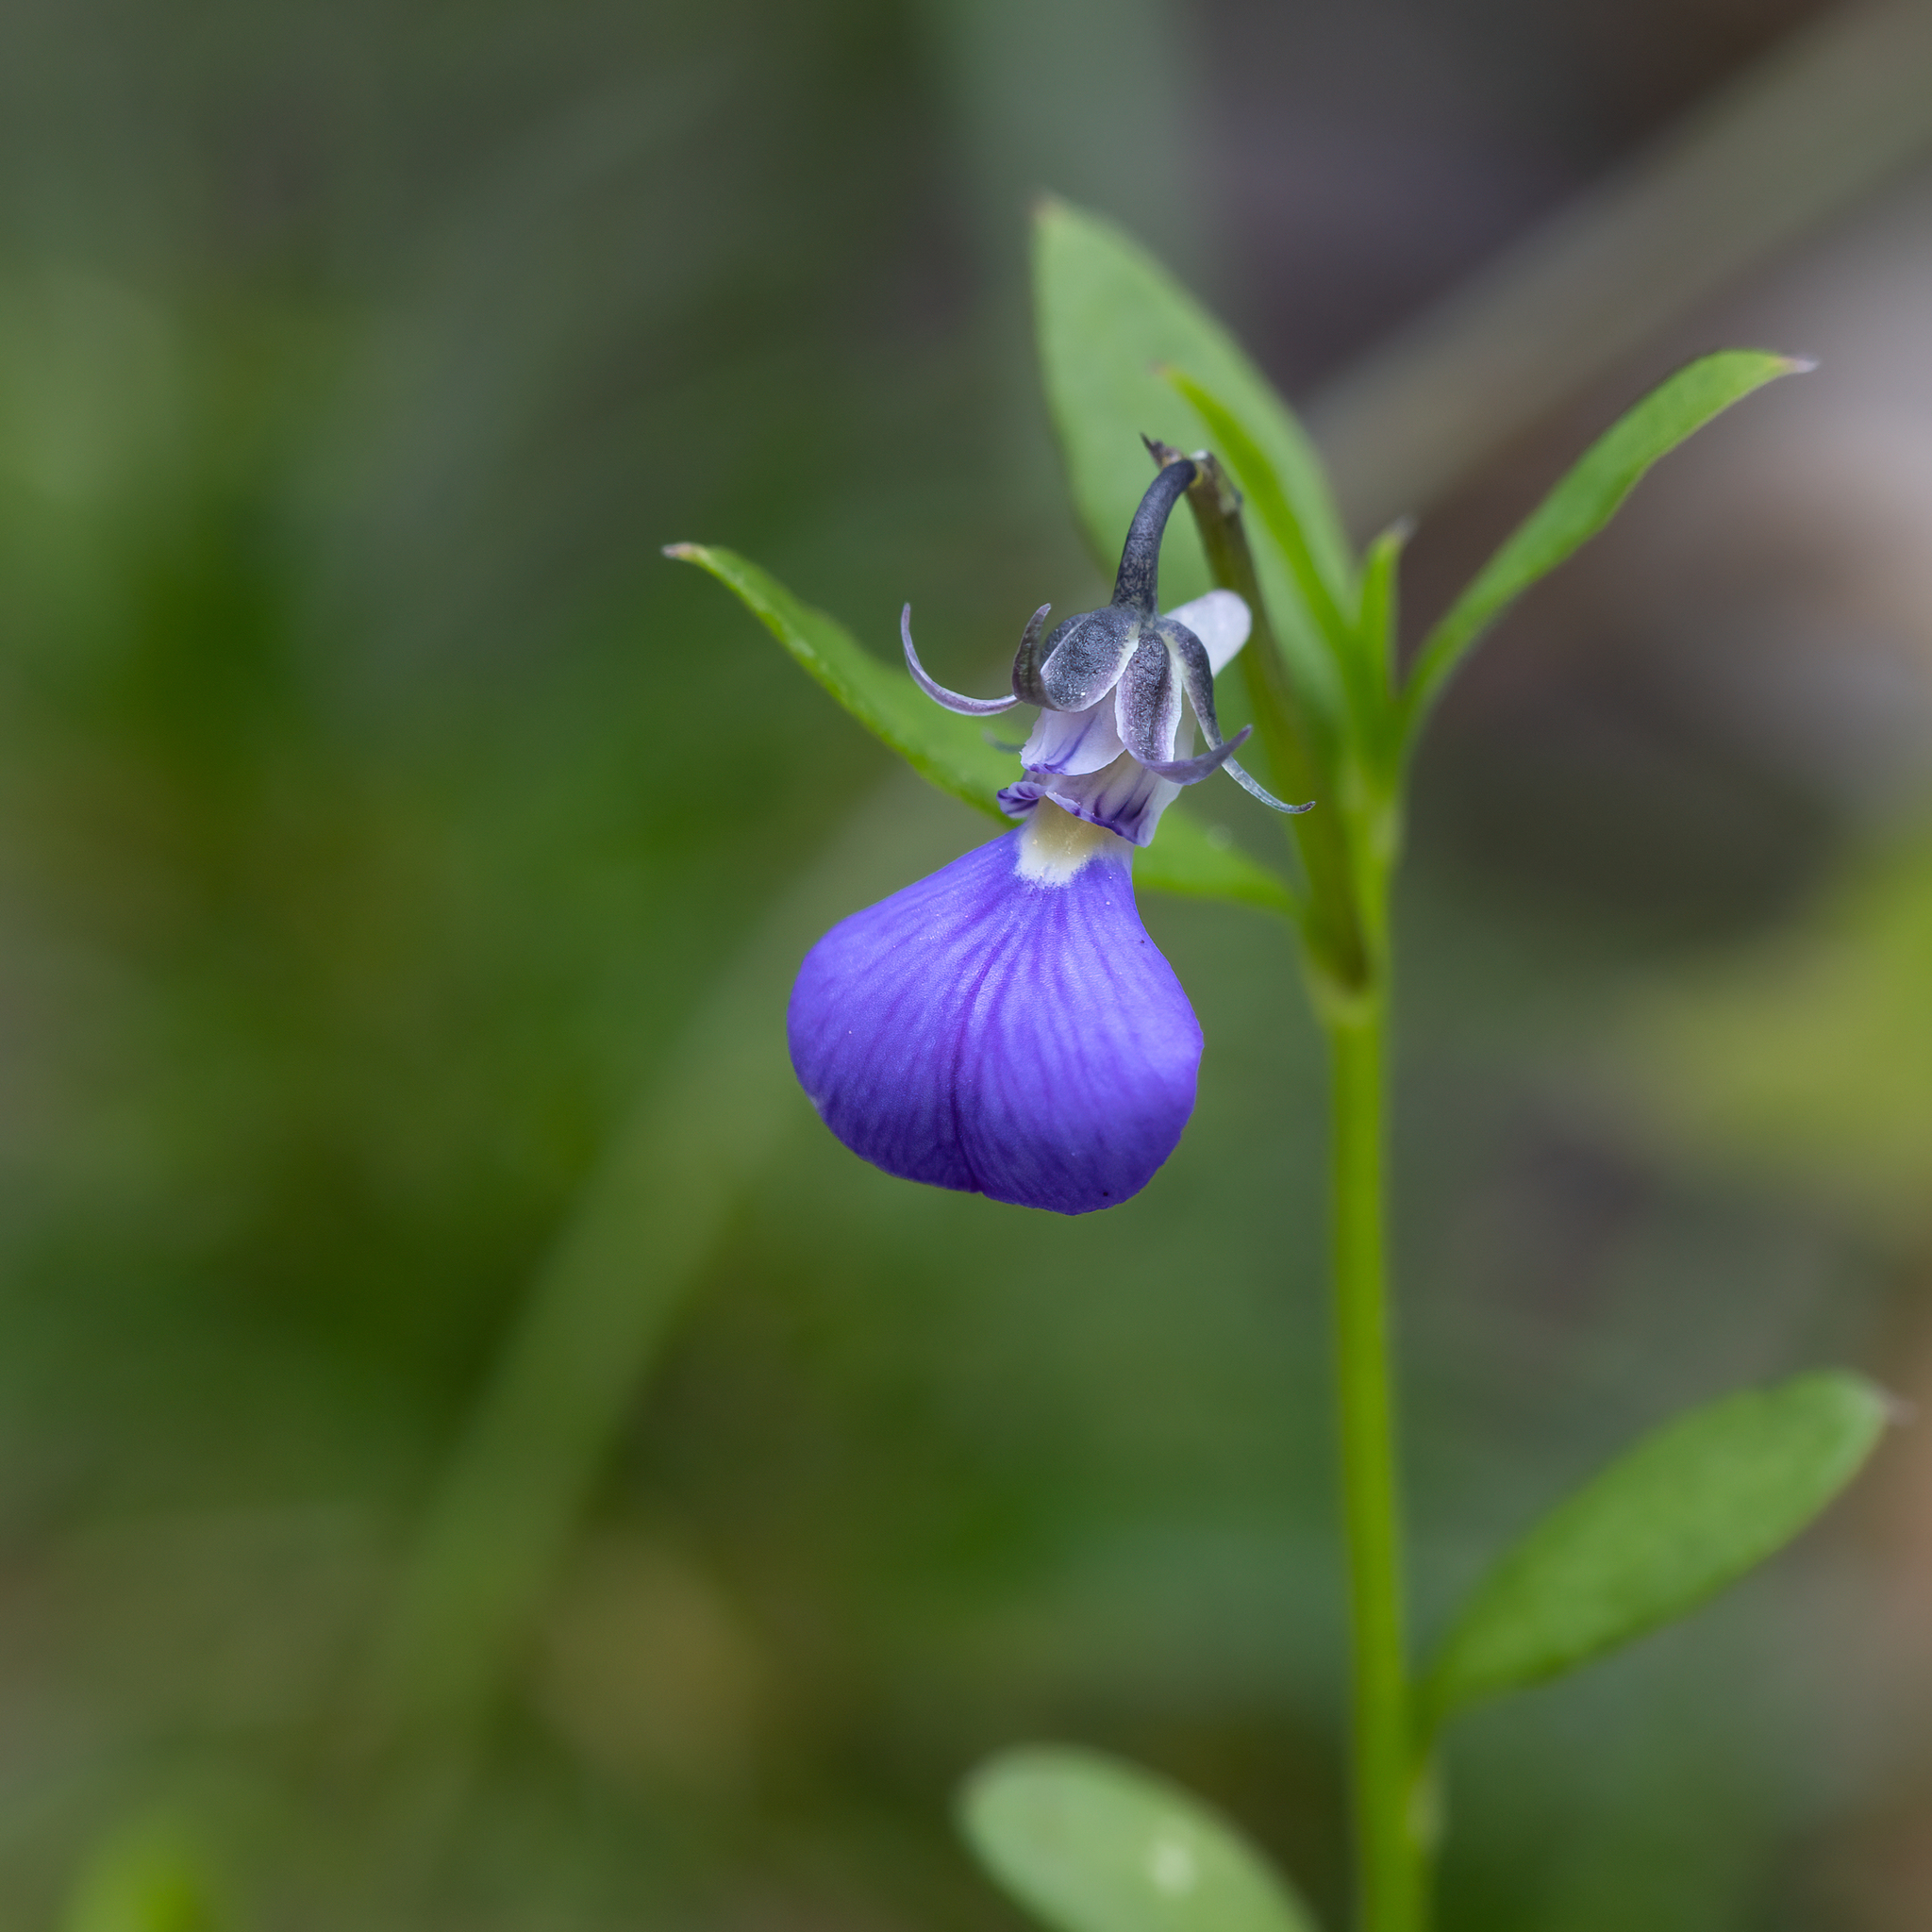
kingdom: Plantae
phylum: Tracheophyta
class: Magnoliopsida
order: Malpighiales
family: Violaceae
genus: Pigea
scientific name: Pigea debilissima
